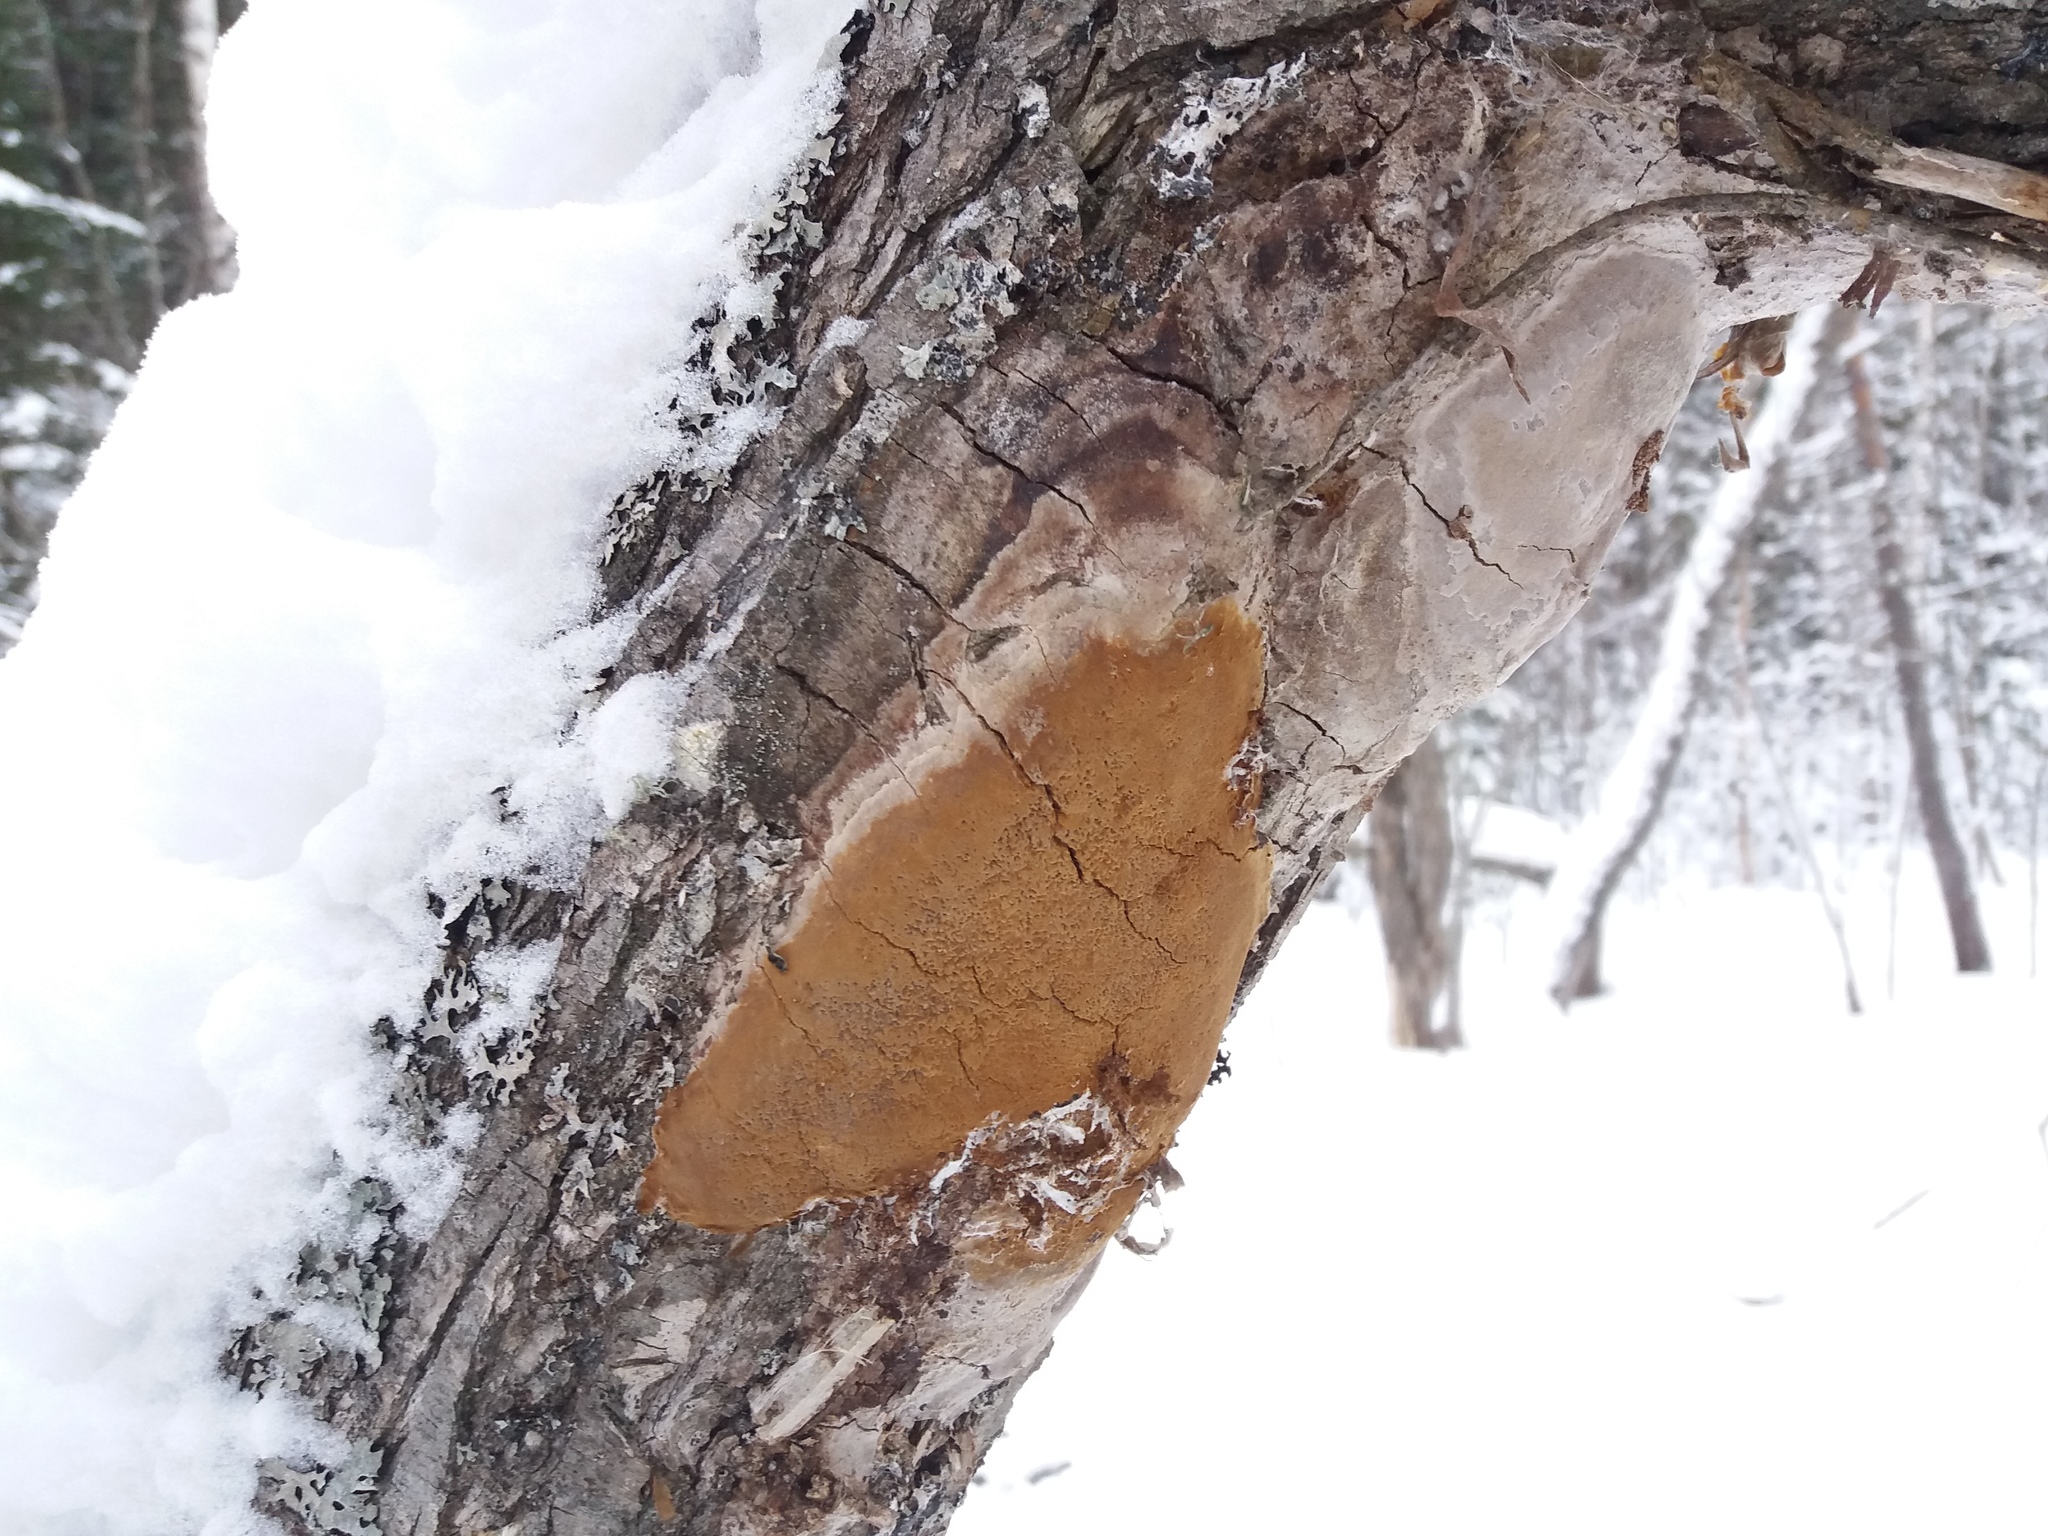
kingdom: Fungi
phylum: Basidiomycota
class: Agaricomycetes
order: Hymenochaetales
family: Hymenochaetaceae
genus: Fomitiporia
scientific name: Fomitiporia punctata
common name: Elbowpatch crust
